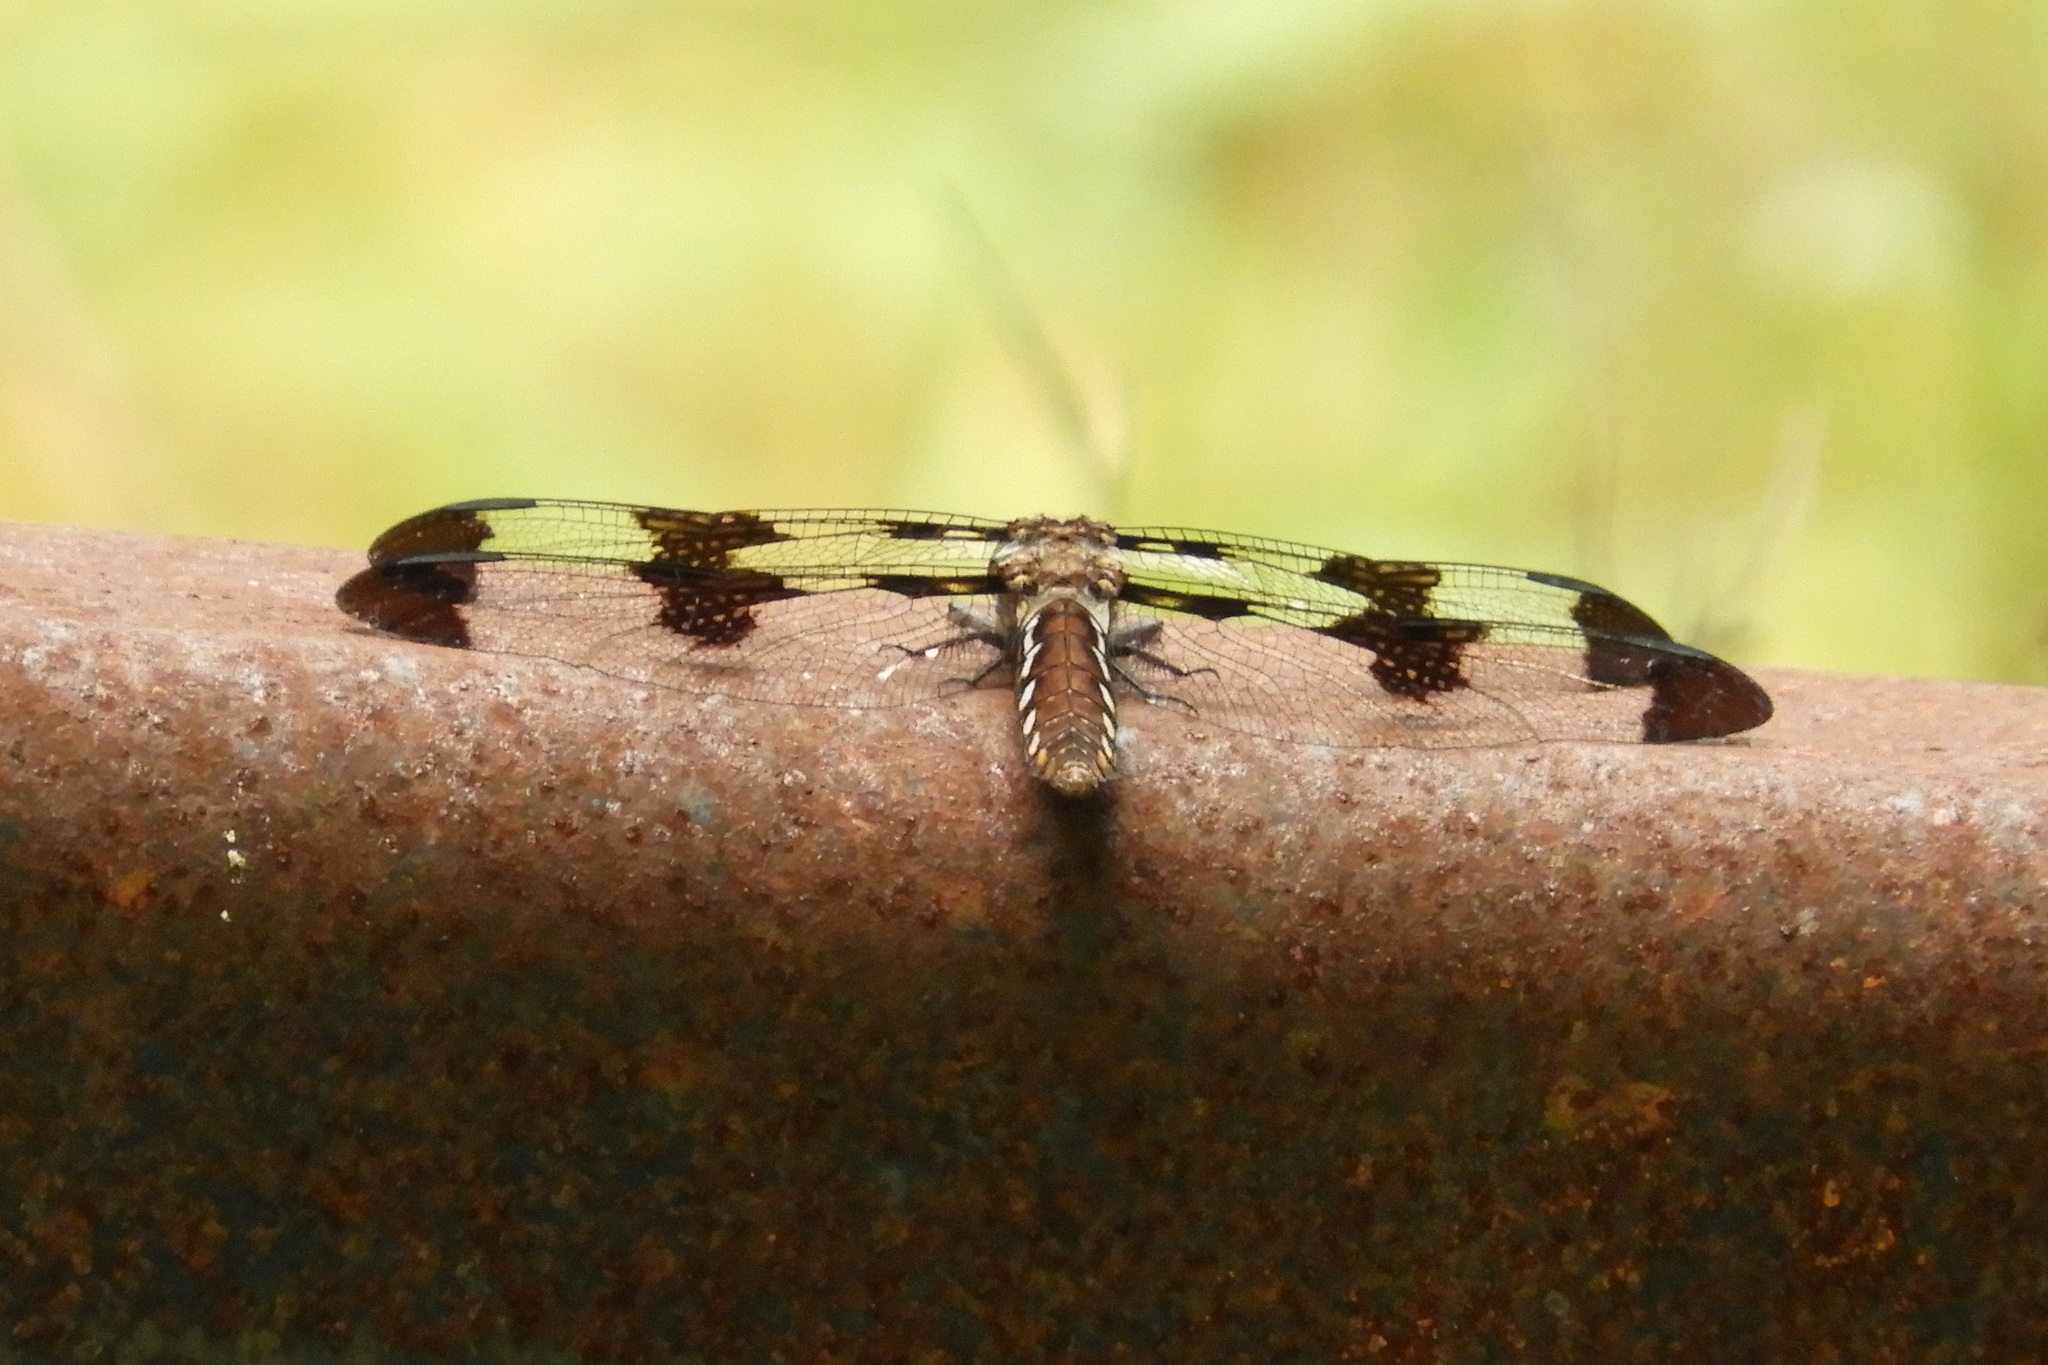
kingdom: Animalia
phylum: Arthropoda
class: Insecta
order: Odonata
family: Libellulidae
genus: Plathemis
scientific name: Plathemis lydia
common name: Common whitetail
